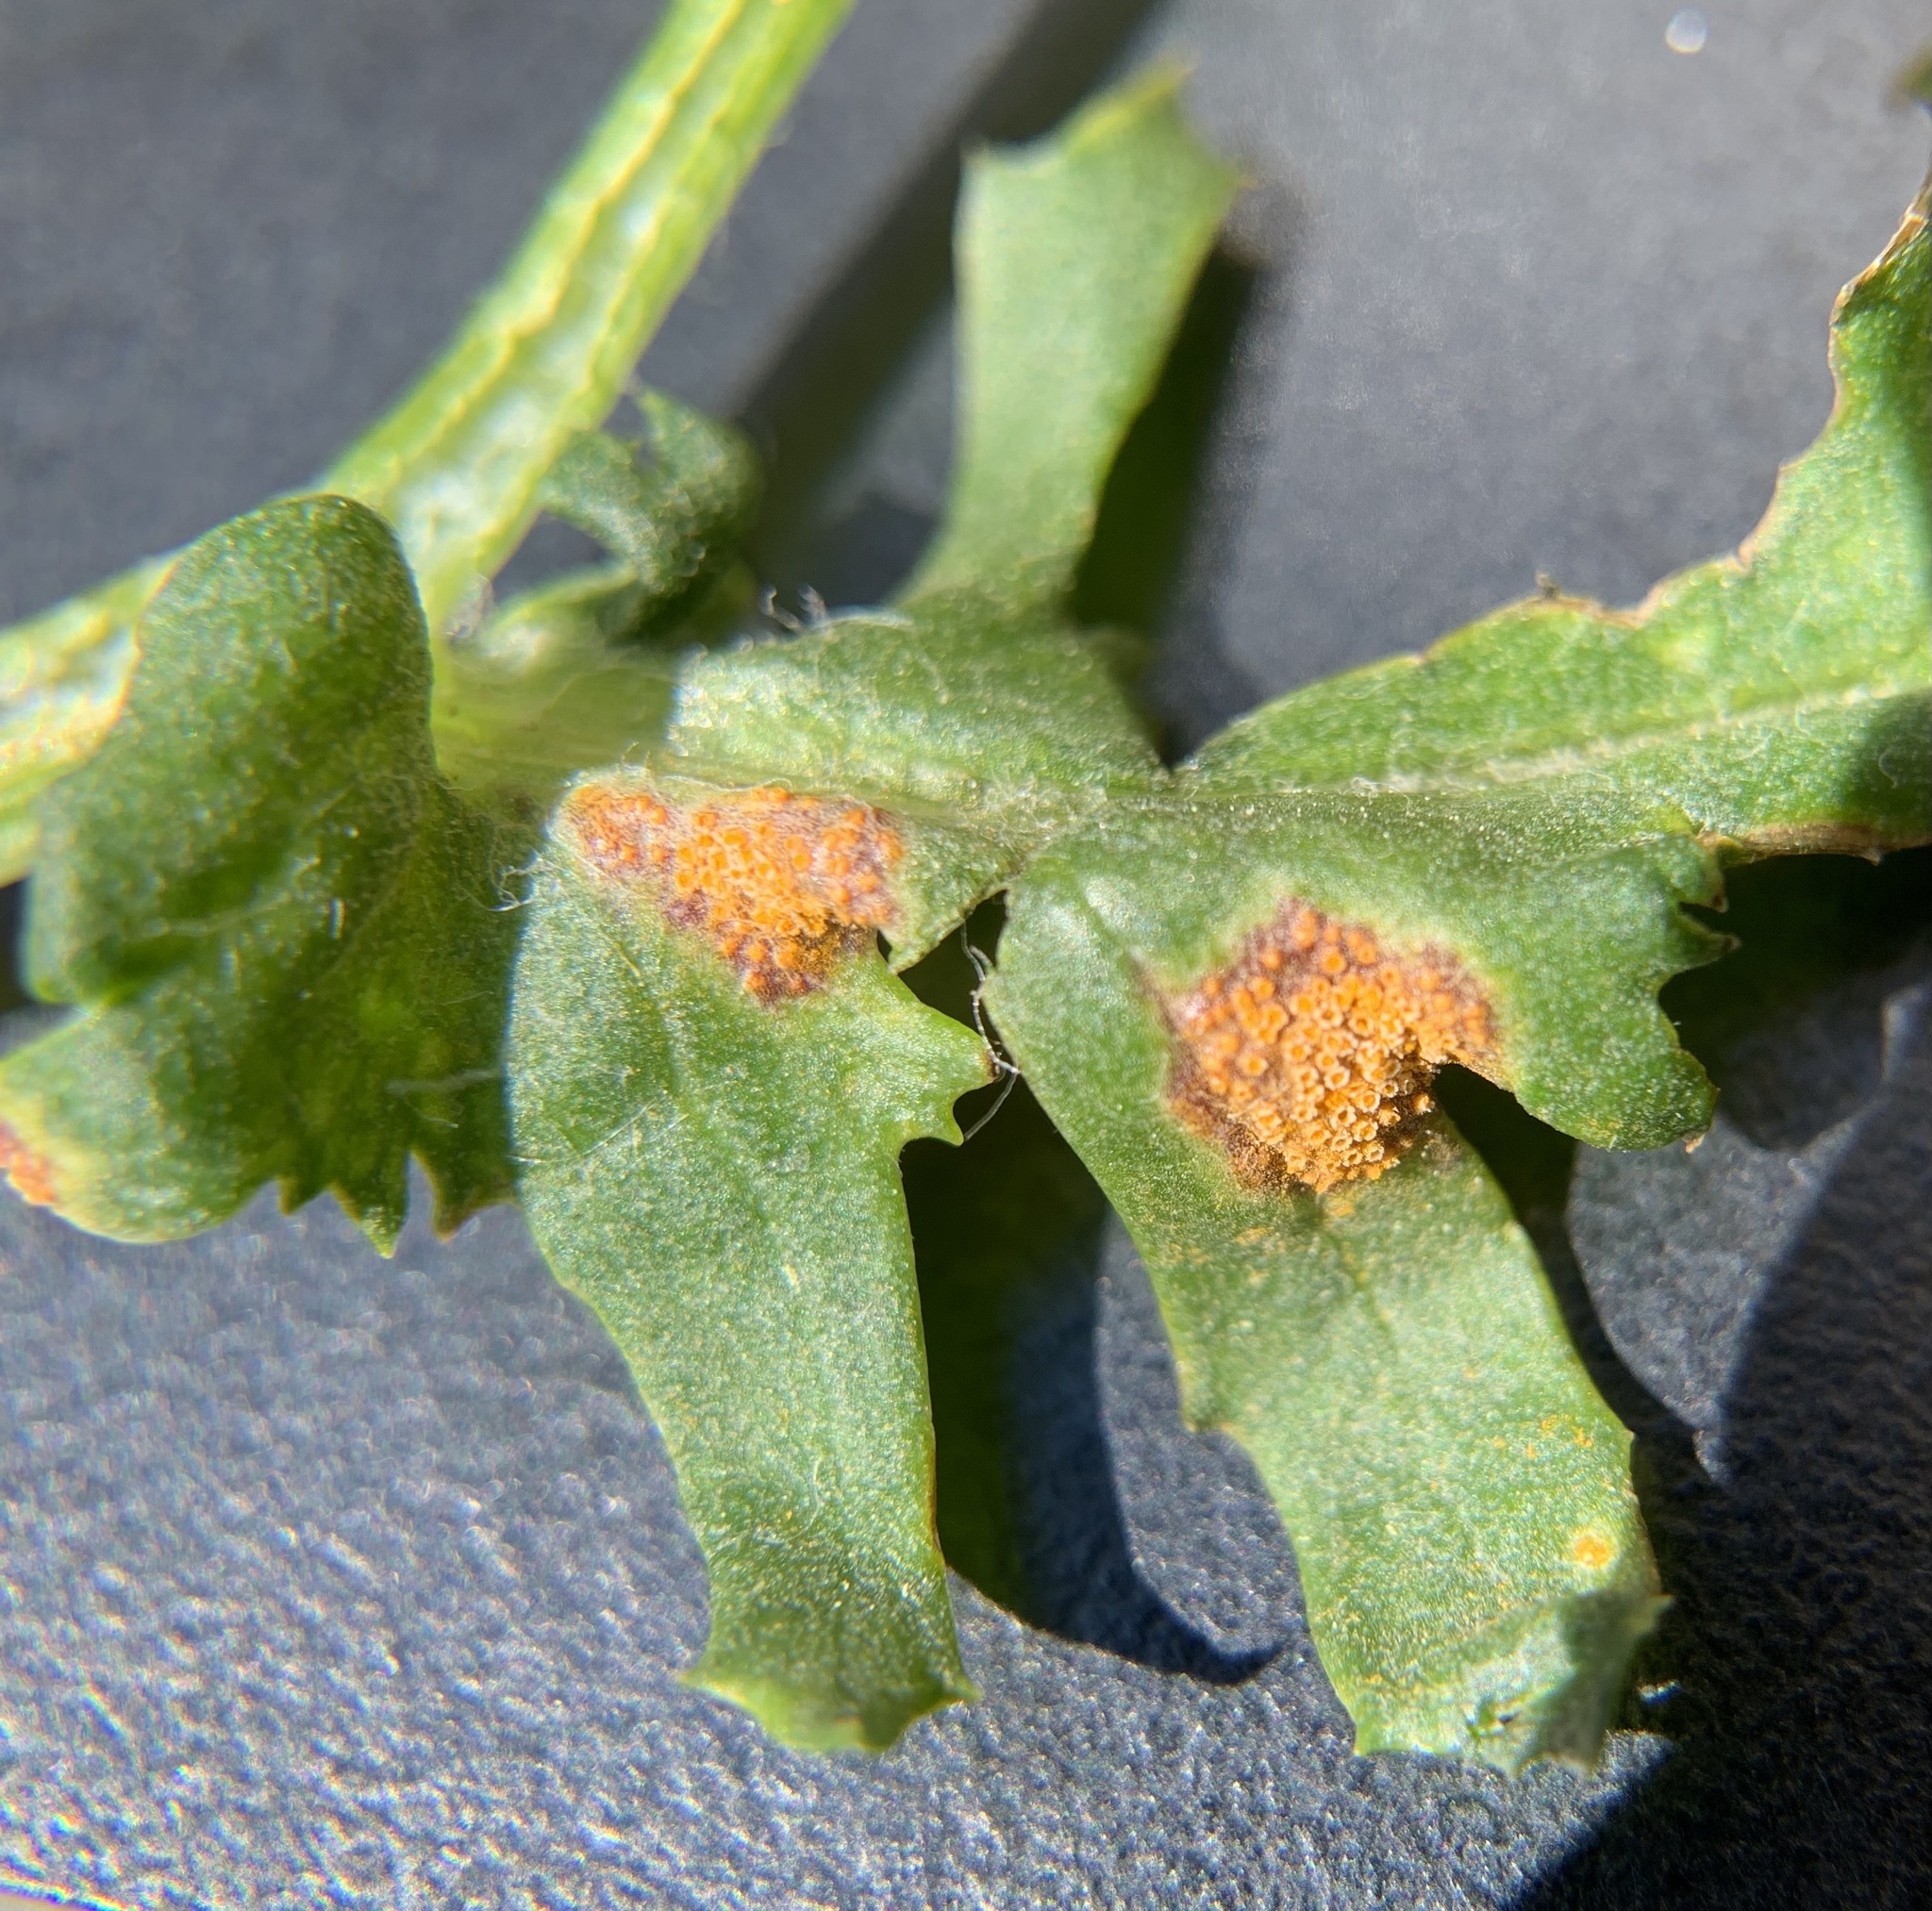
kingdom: Fungi
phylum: Basidiomycota
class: Pucciniomycetes
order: Pucciniales
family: Pucciniaceae
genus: Puccinia
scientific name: Puccinia lagenophorae
